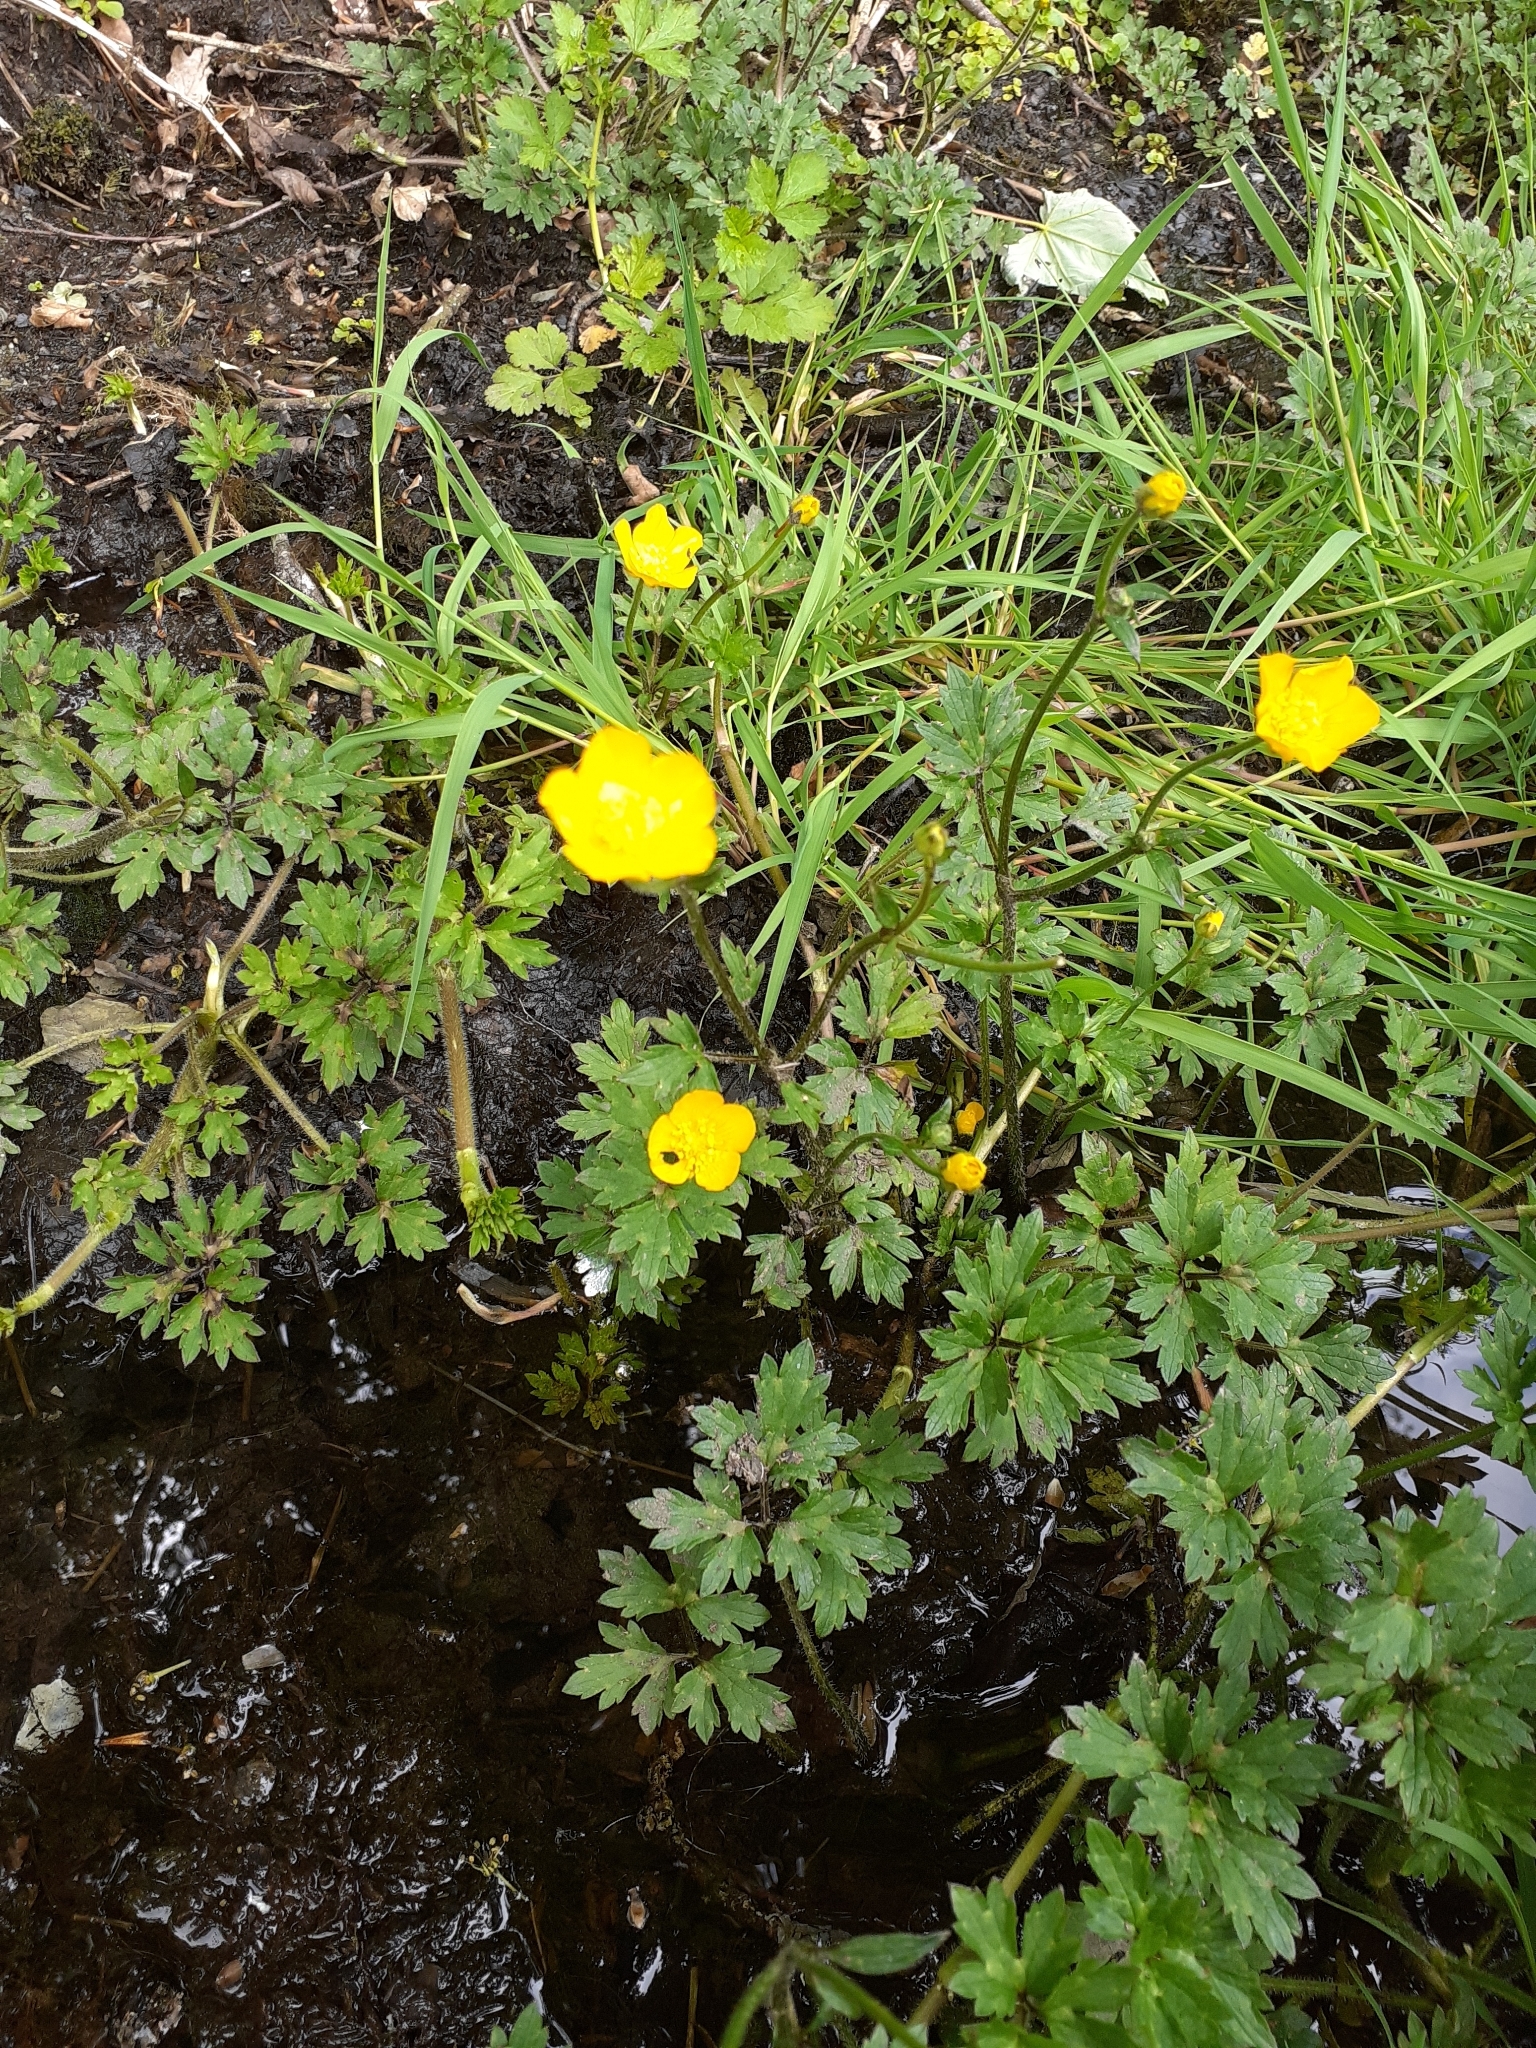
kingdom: Plantae
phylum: Tracheophyta
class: Magnoliopsida
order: Ranunculales
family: Ranunculaceae
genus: Ranunculus
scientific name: Ranunculus repens
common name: Creeping buttercup
